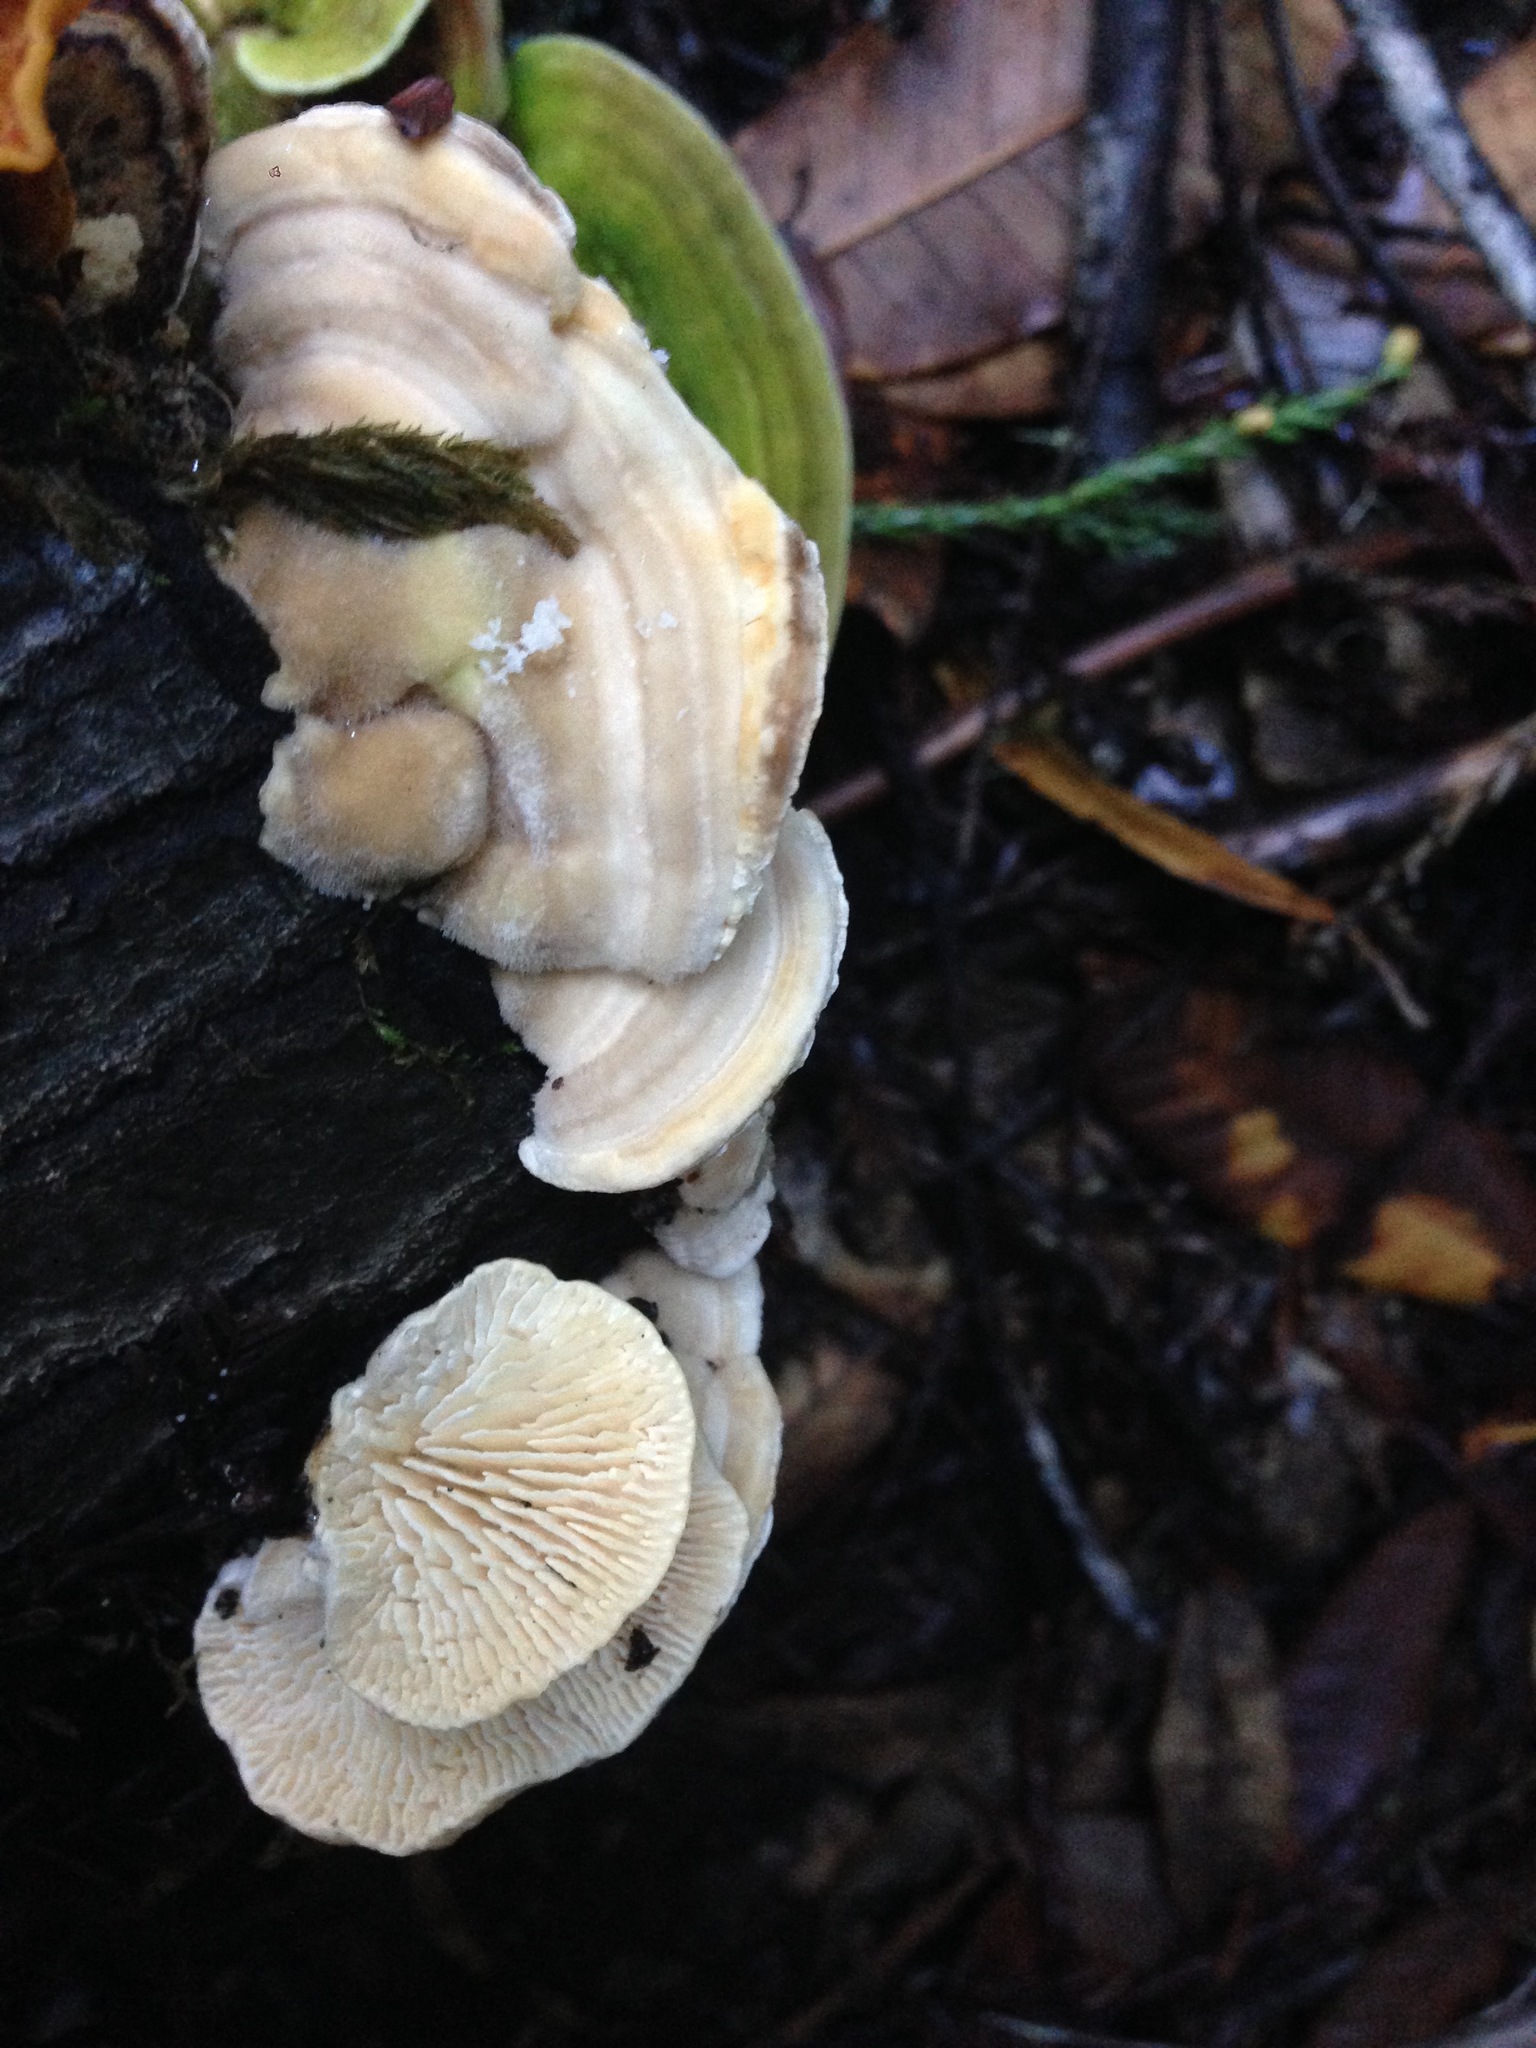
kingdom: Fungi
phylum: Basidiomycota
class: Agaricomycetes
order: Polyporales
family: Polyporaceae
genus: Lenzites
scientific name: Lenzites betulinus
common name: Birch mazegill
